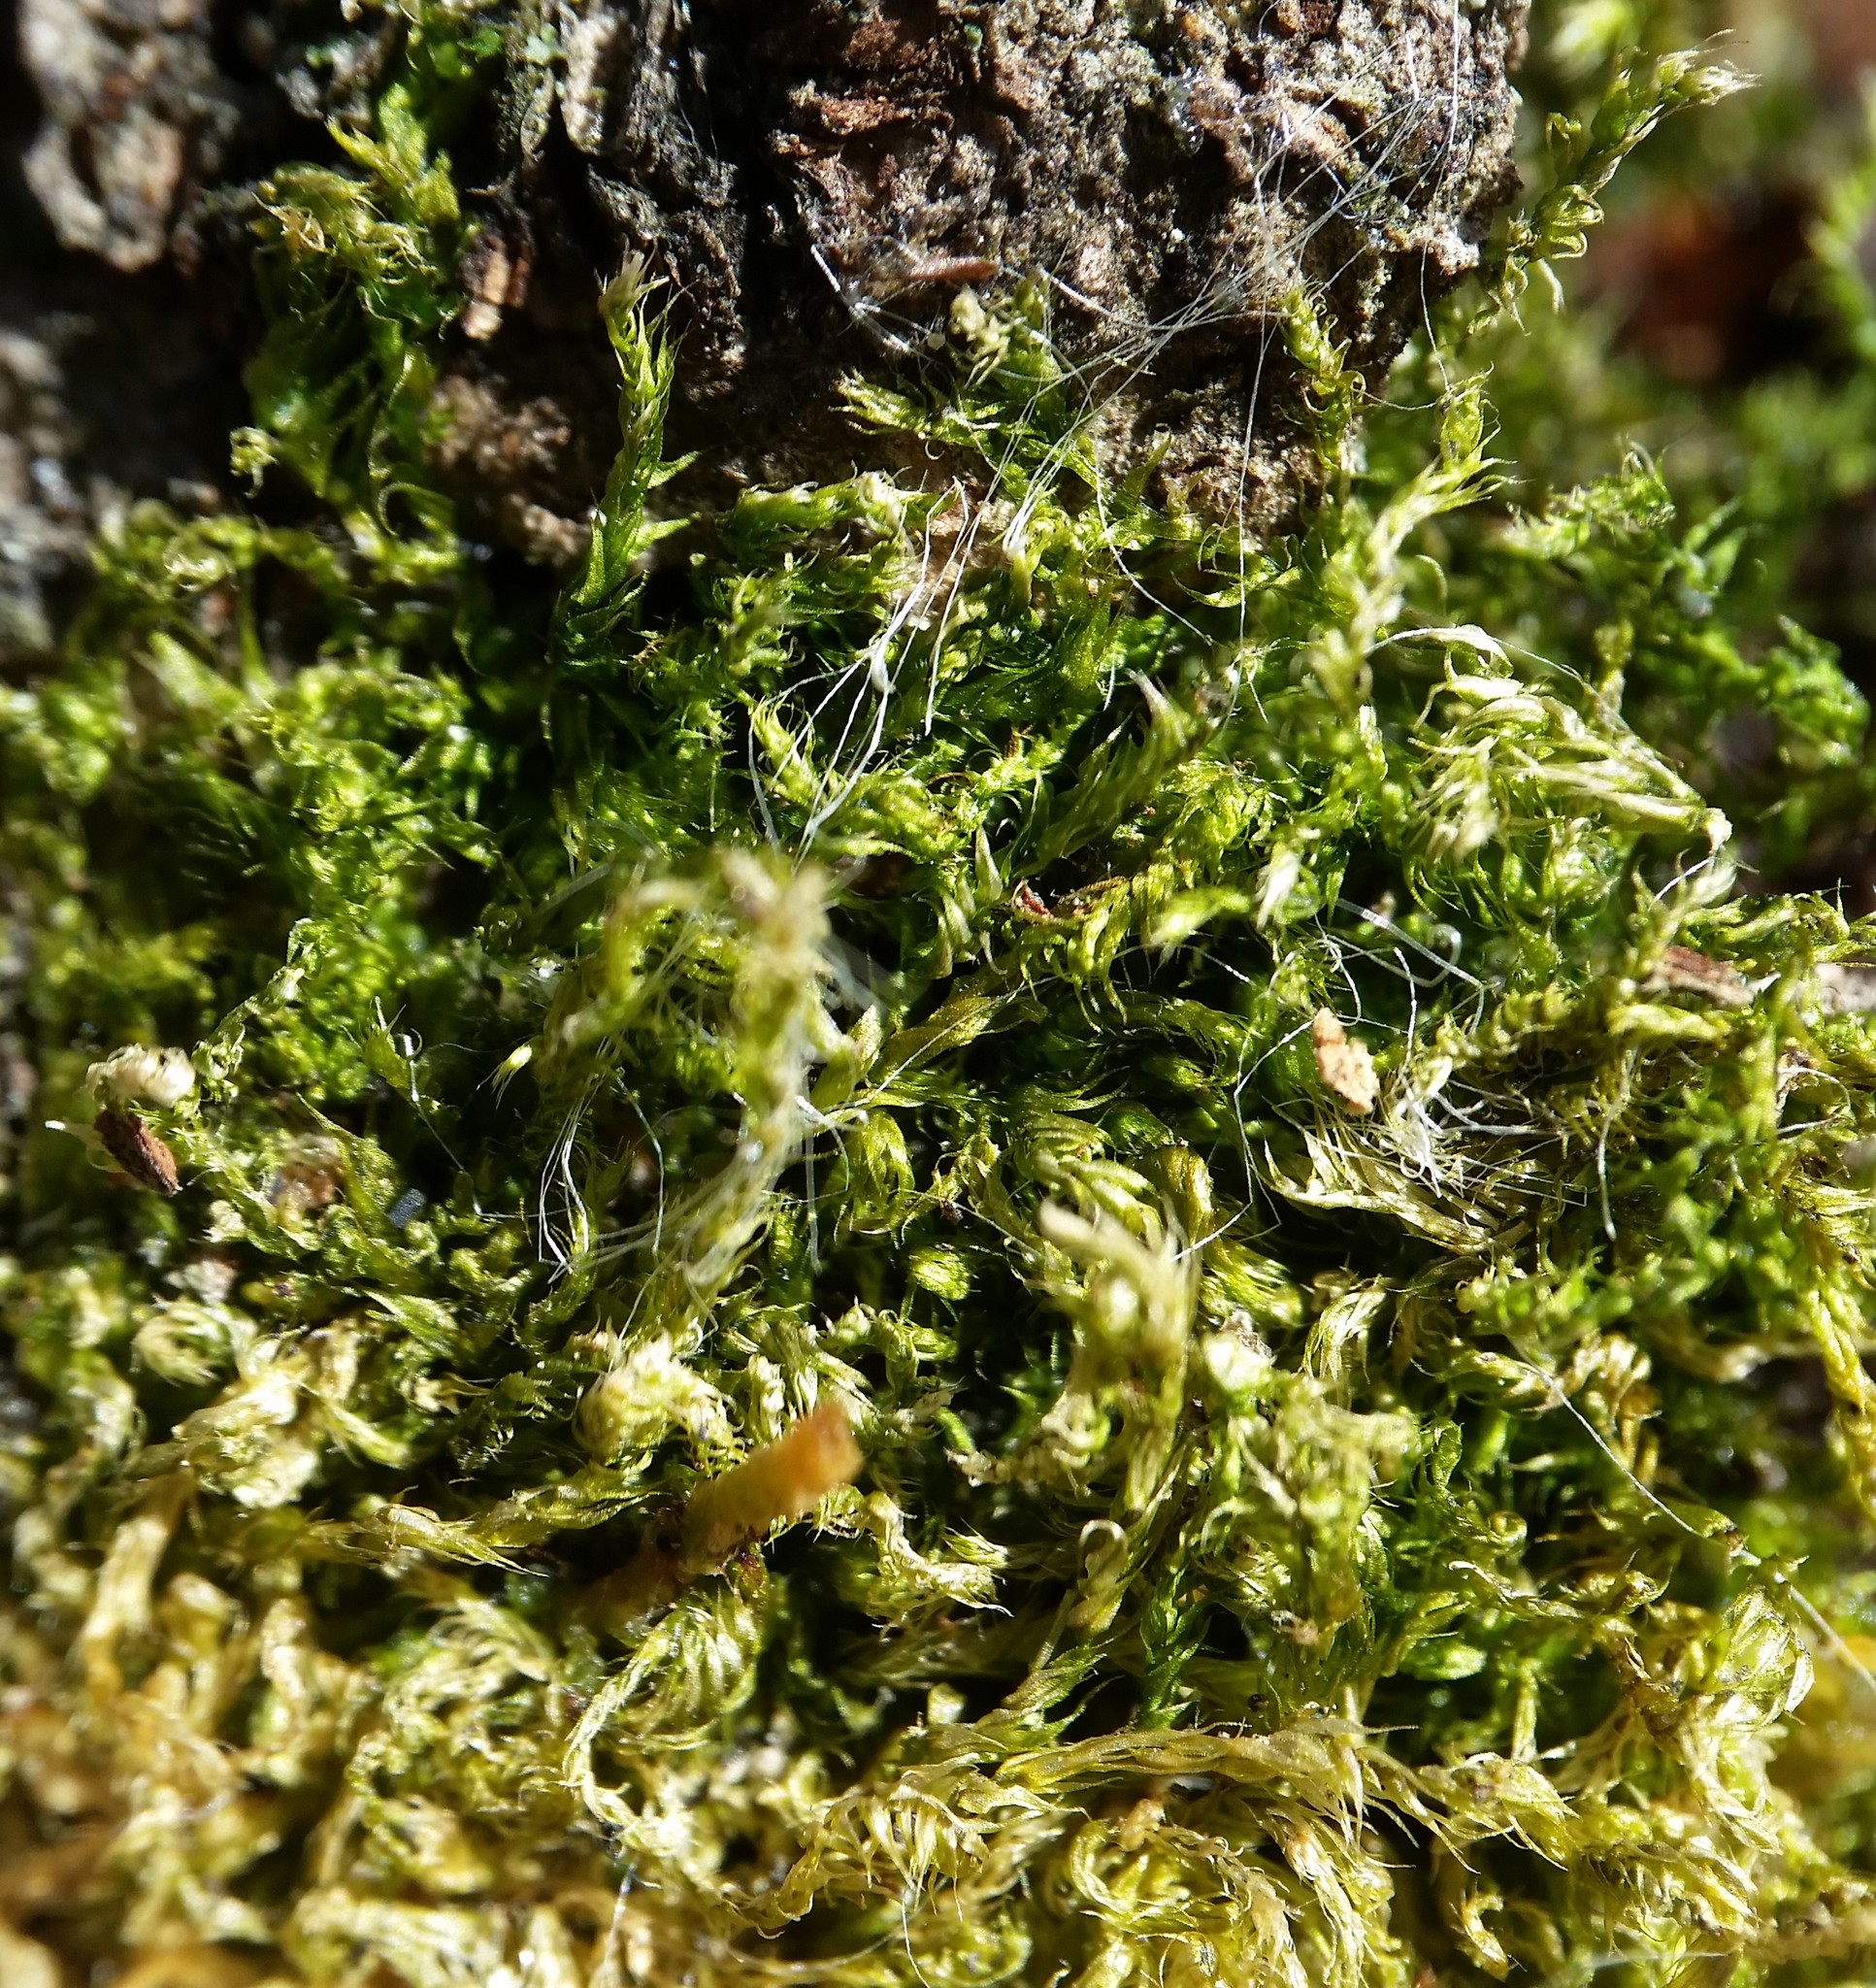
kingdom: Plantae
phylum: Bryophyta
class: Bryopsida
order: Hypnales
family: Amblystegiaceae
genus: Amblystegium
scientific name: Amblystegium serpens
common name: Jurkatzka's feather moss
